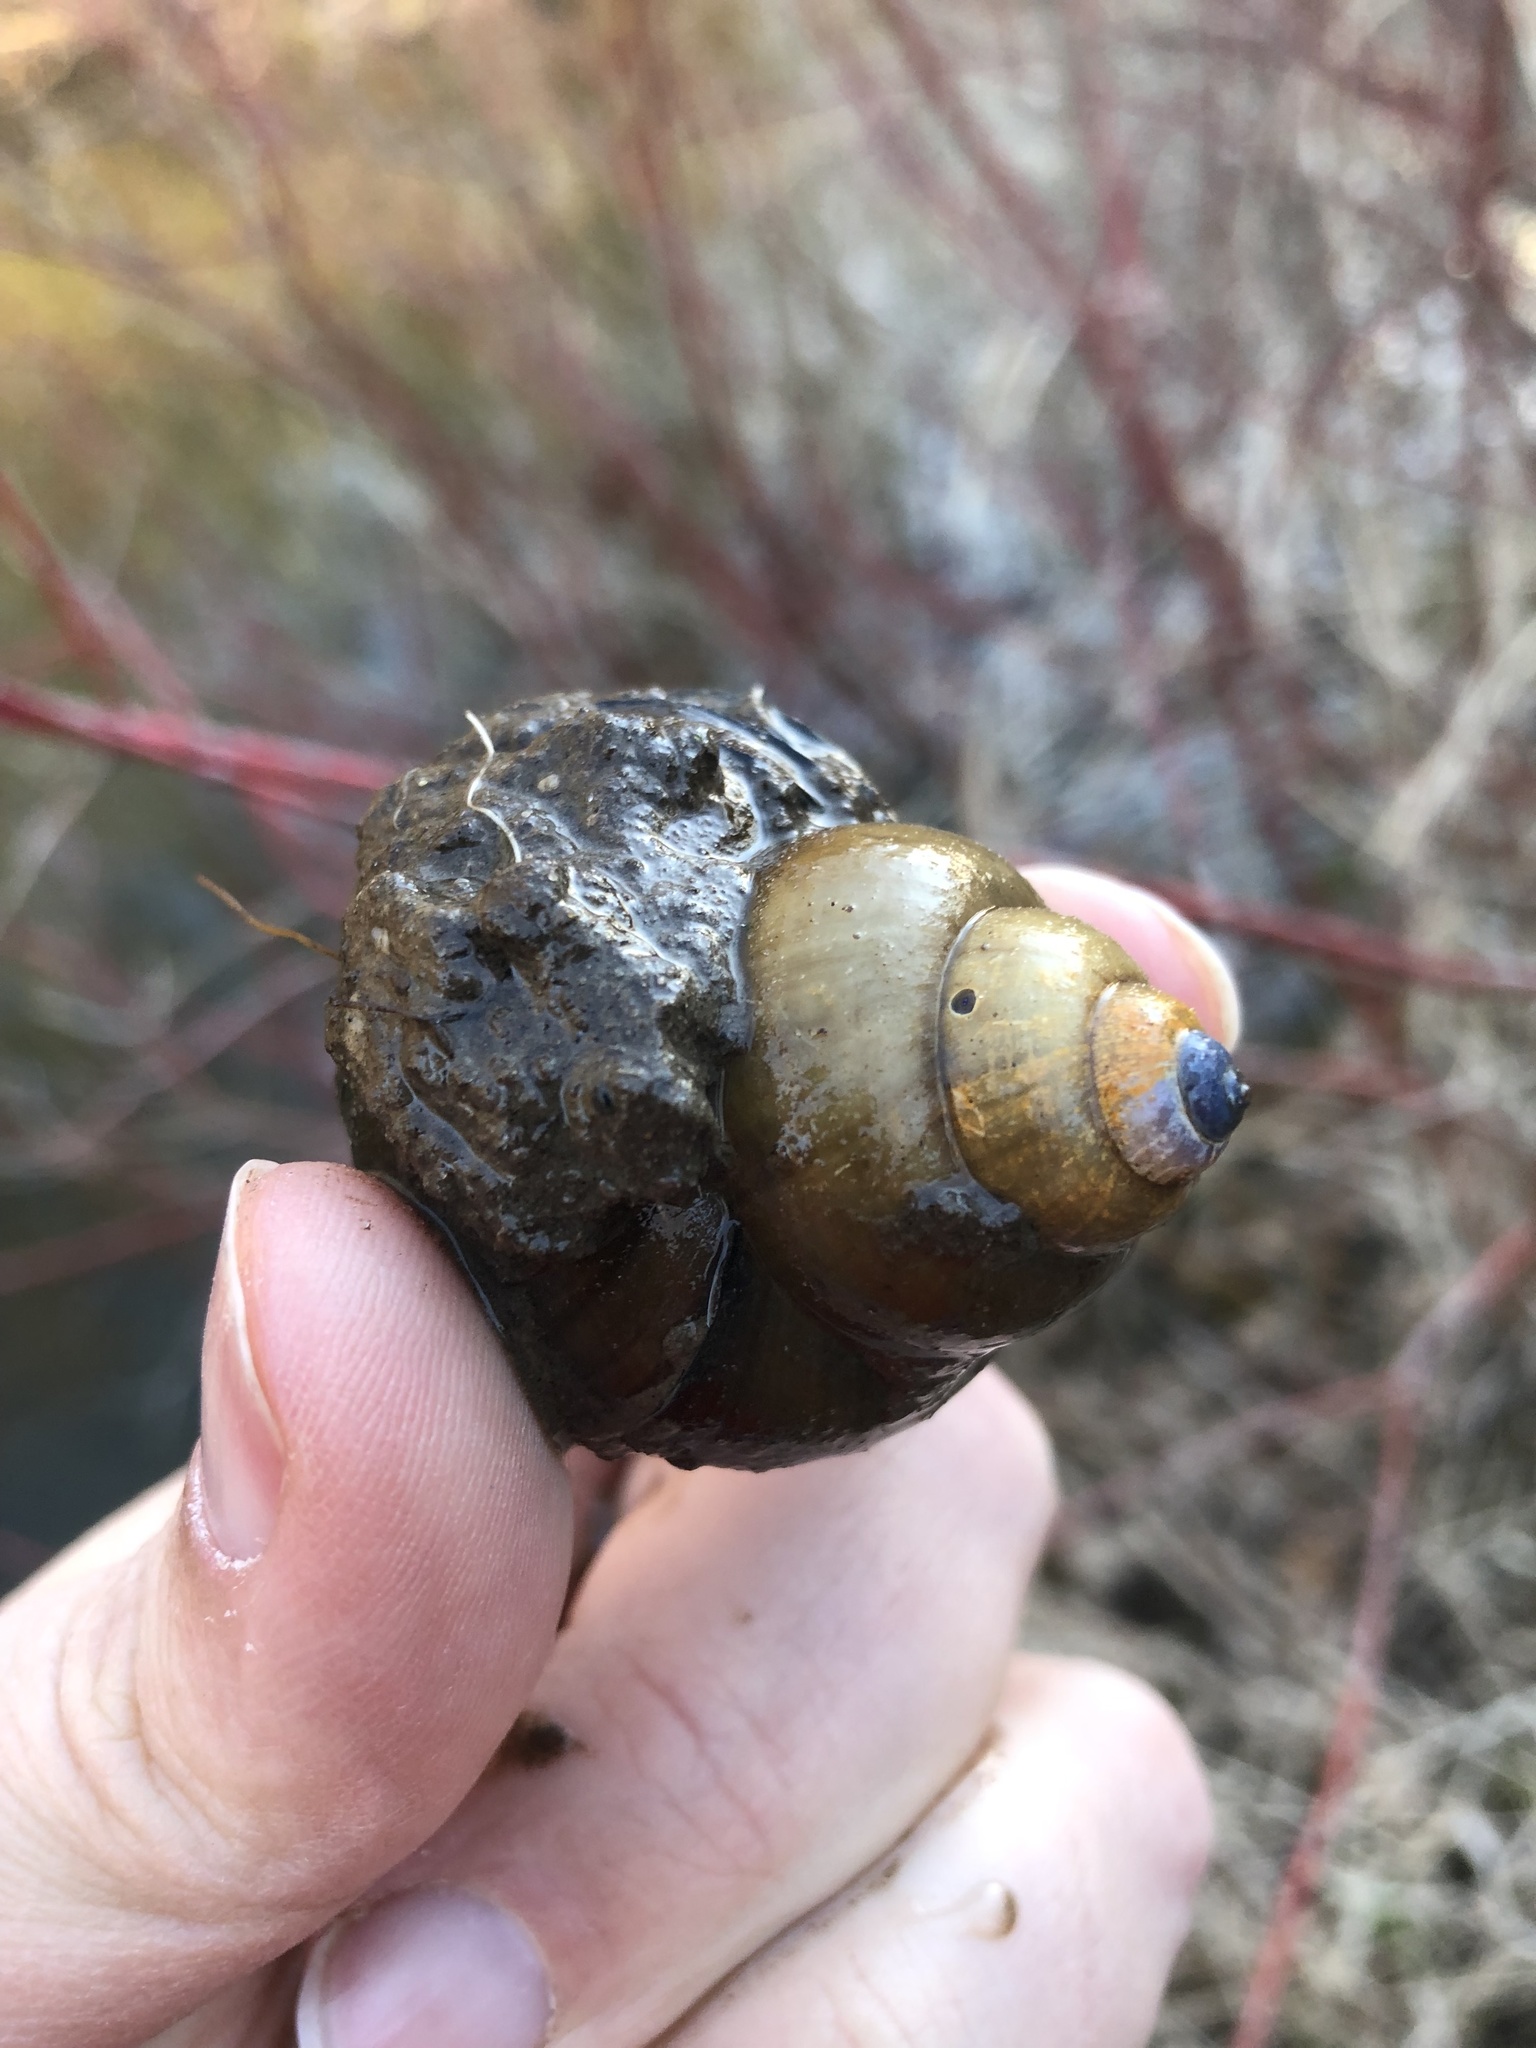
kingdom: Animalia
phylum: Mollusca
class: Gastropoda
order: Architaenioglossa
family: Viviparidae
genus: Cipangopaludina
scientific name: Cipangopaludina chinensis
